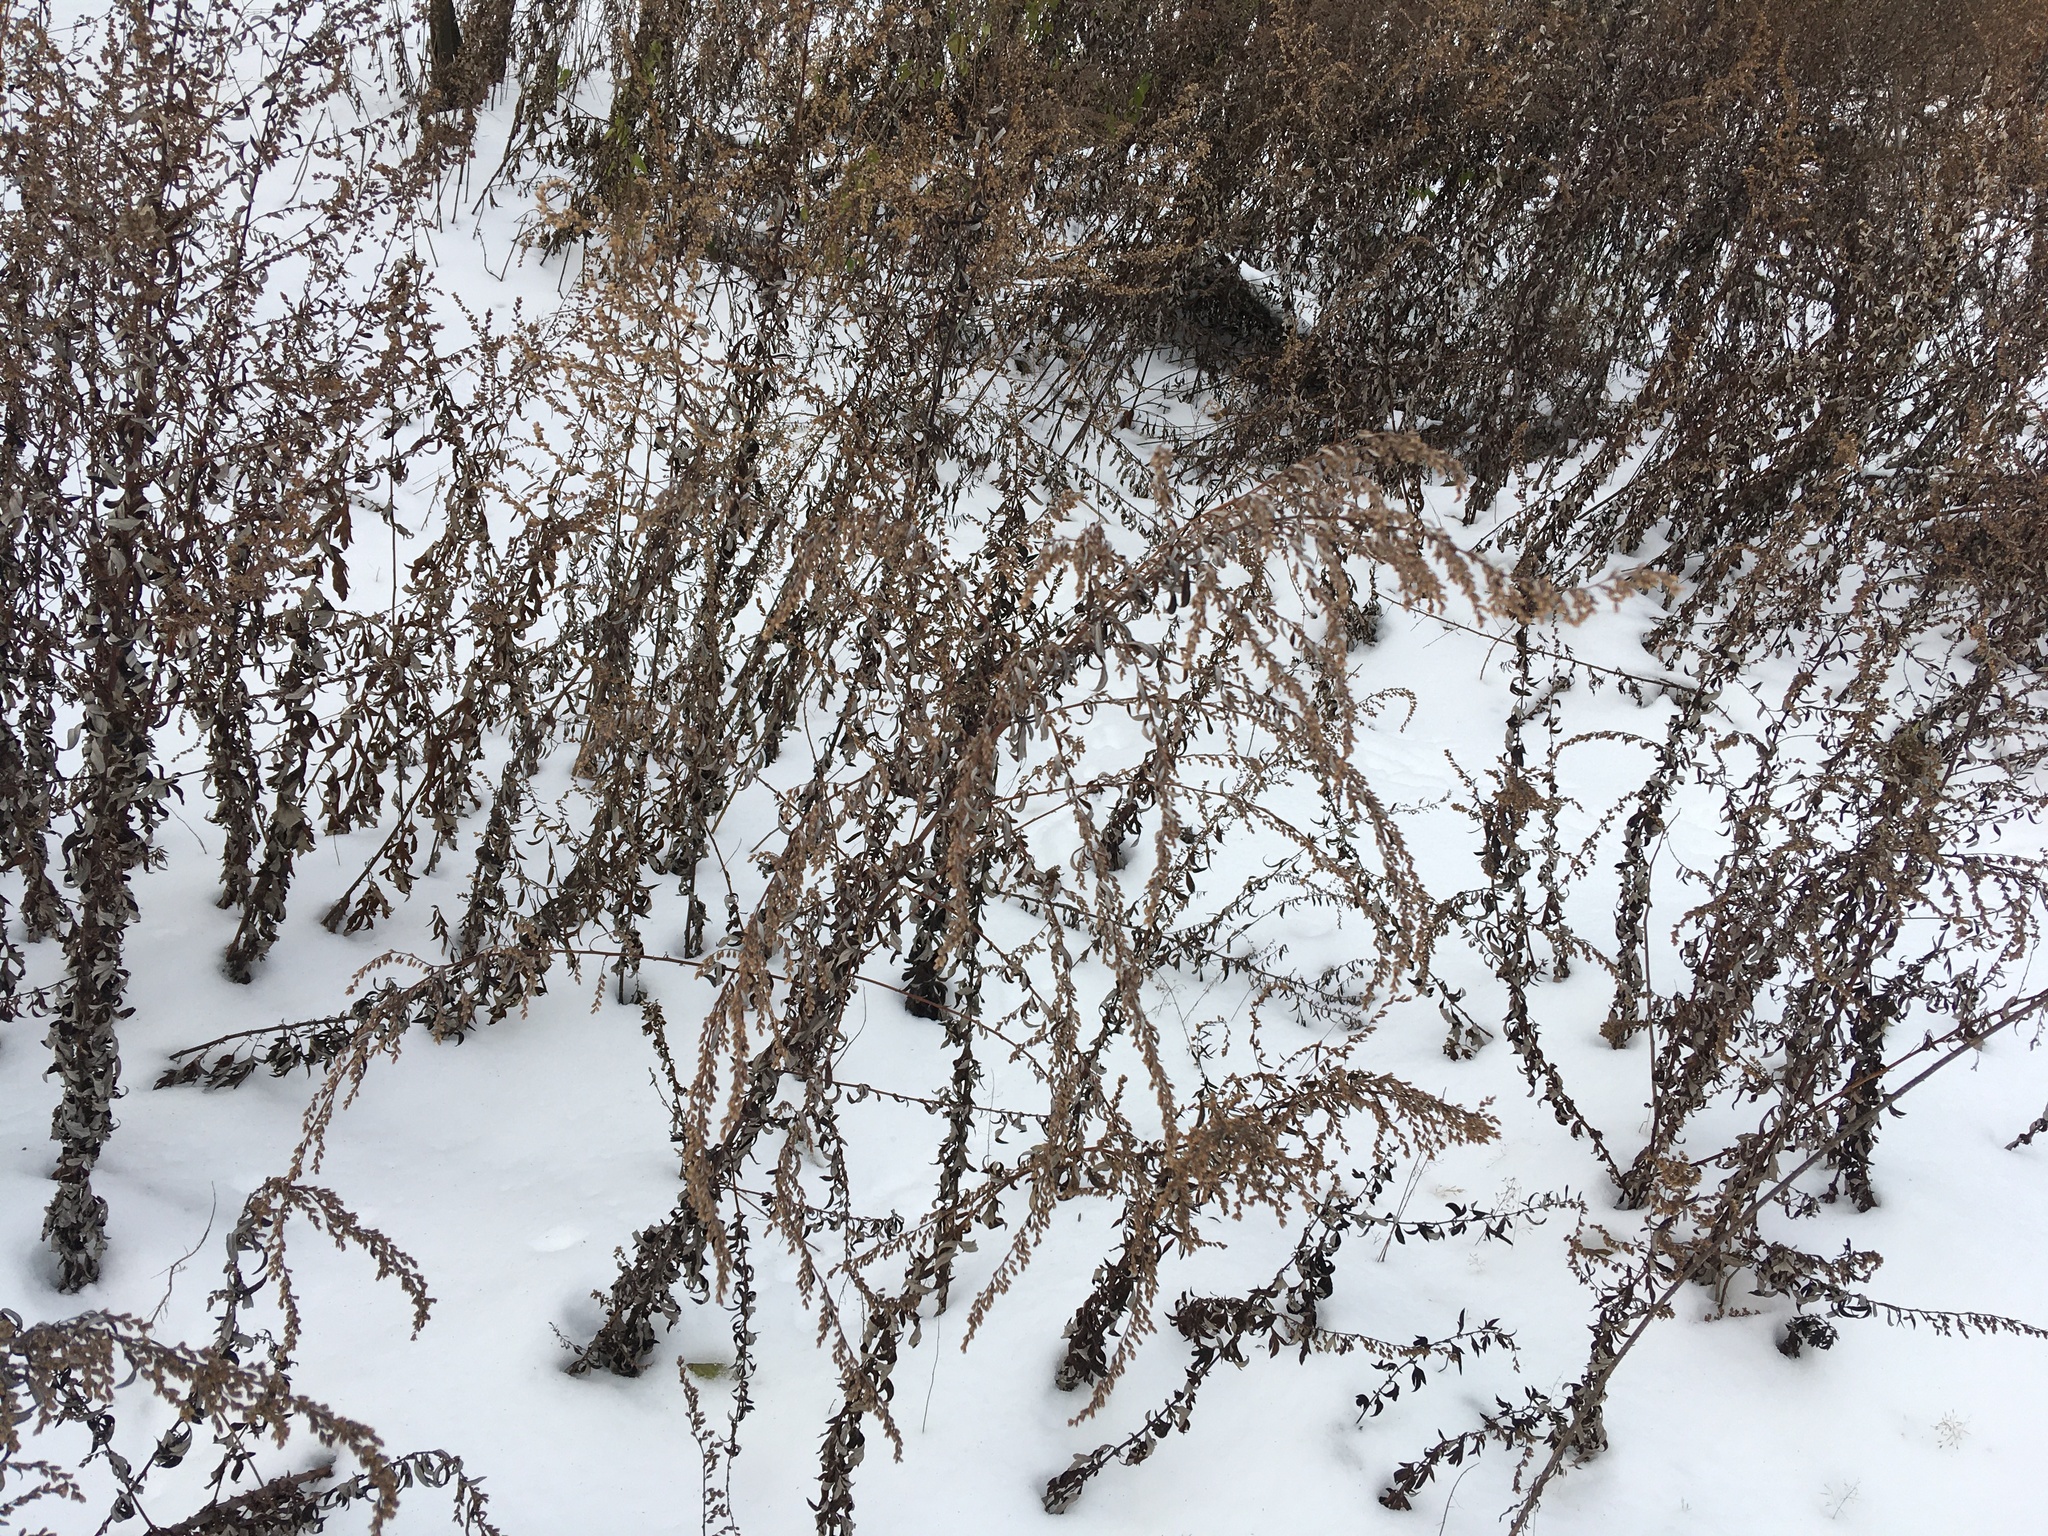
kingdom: Plantae
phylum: Tracheophyta
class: Magnoliopsida
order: Asterales
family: Asteraceae
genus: Artemisia
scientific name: Artemisia vulgaris
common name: Mugwort
